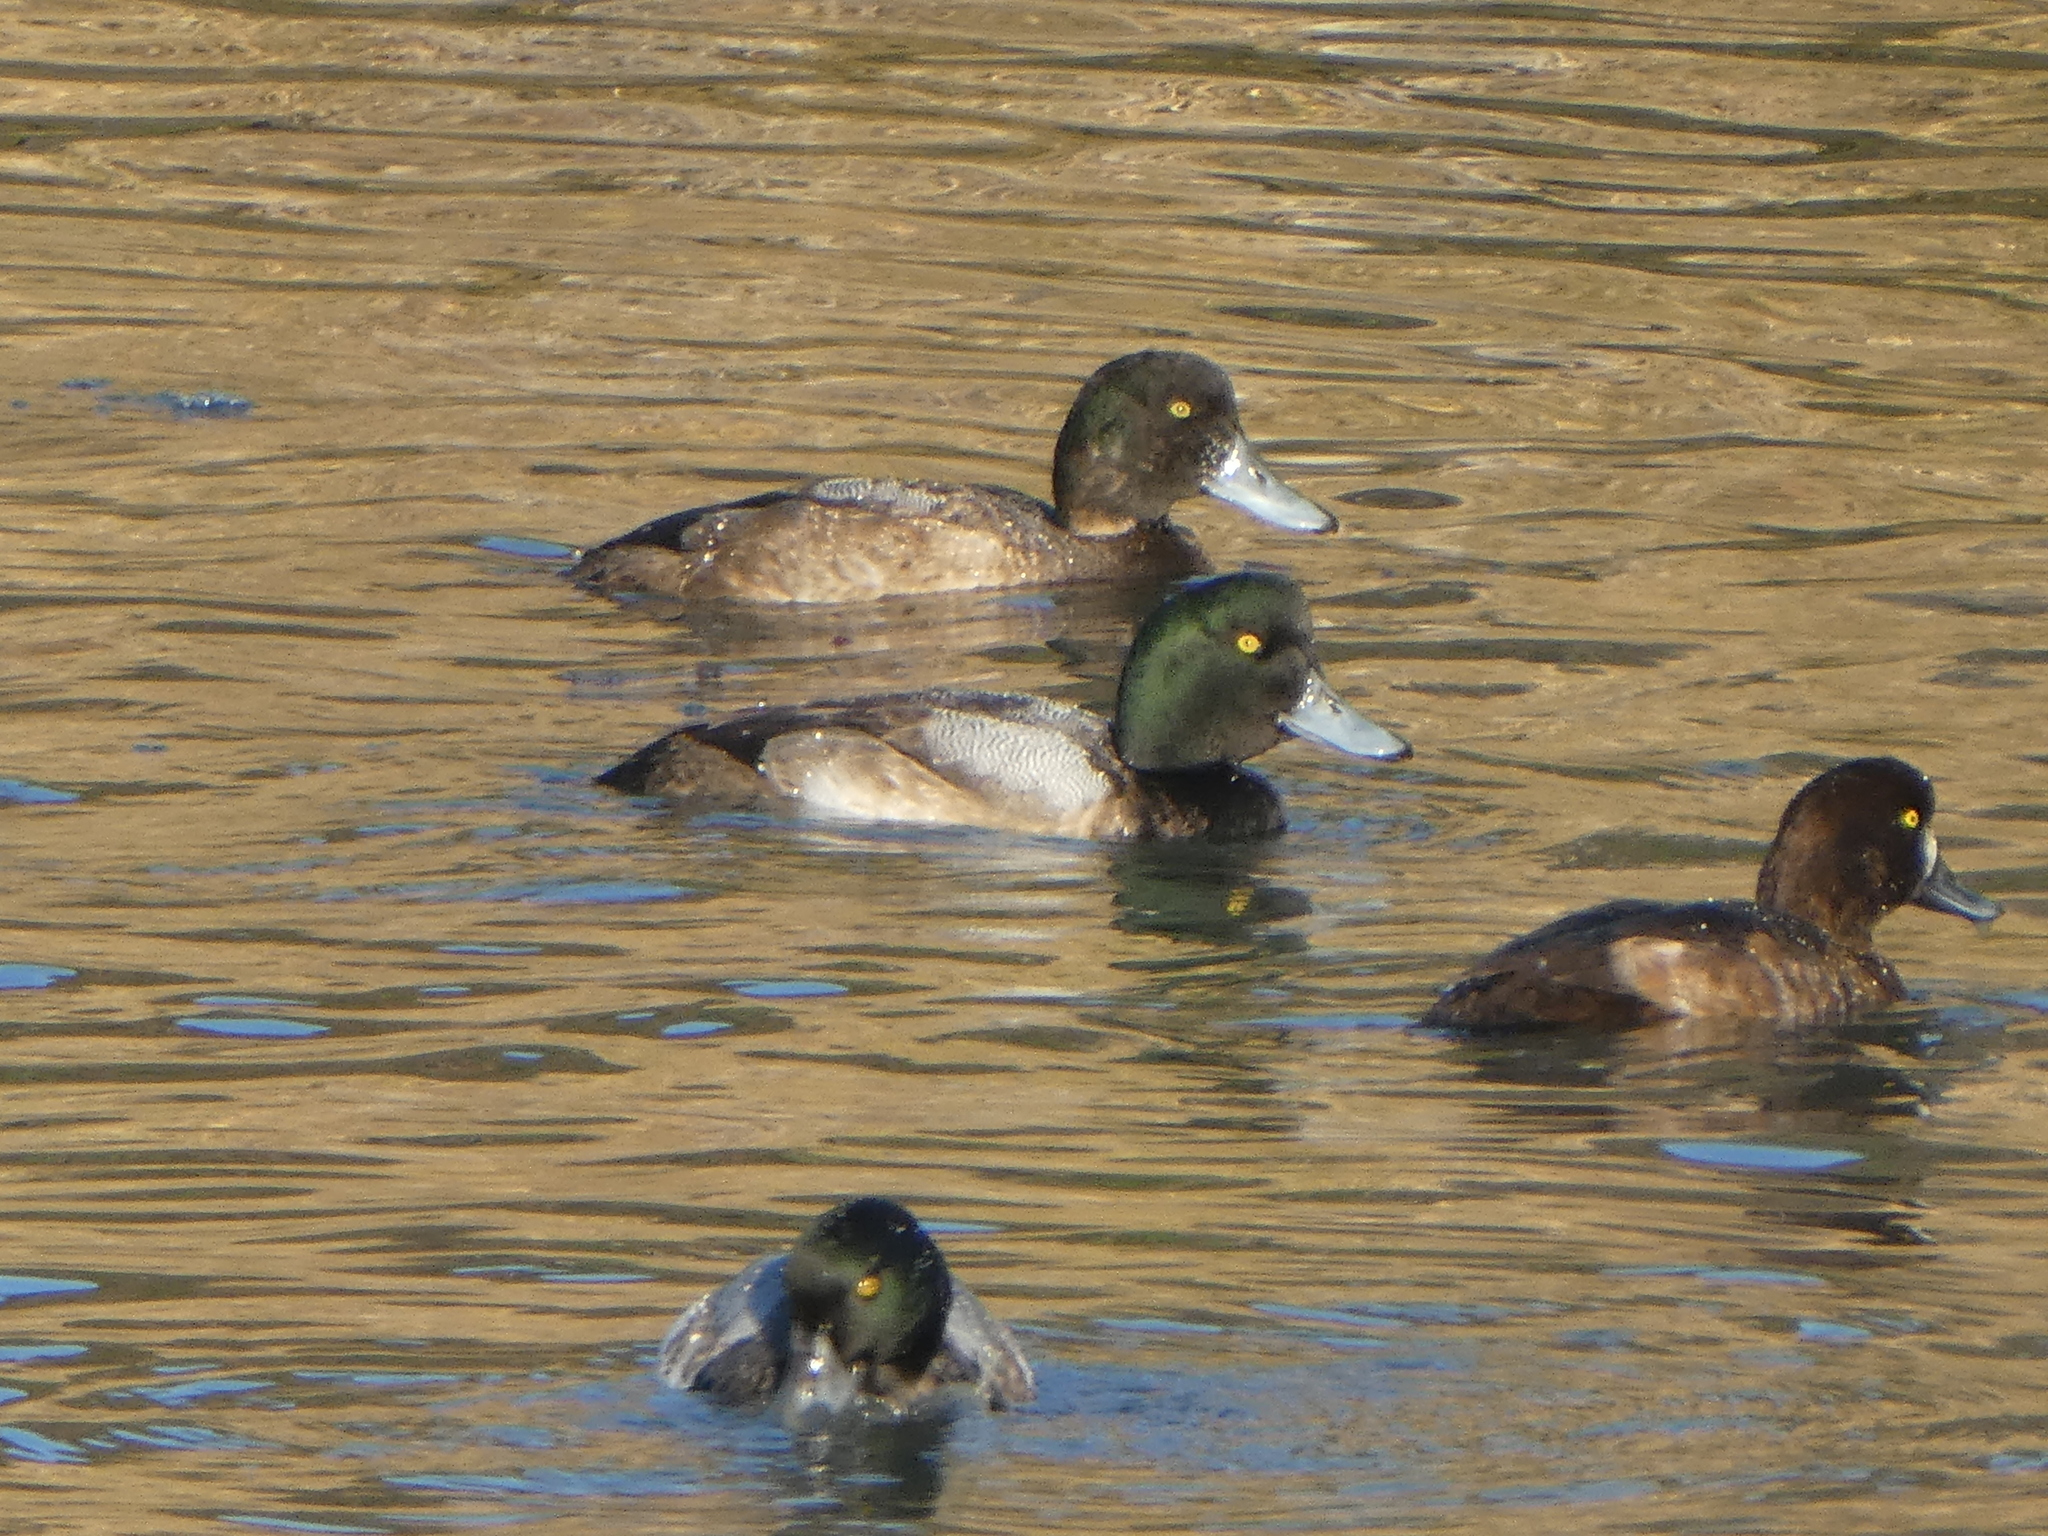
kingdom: Animalia
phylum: Chordata
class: Aves
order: Anseriformes
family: Anatidae
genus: Aythya
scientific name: Aythya marila
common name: Greater scaup
